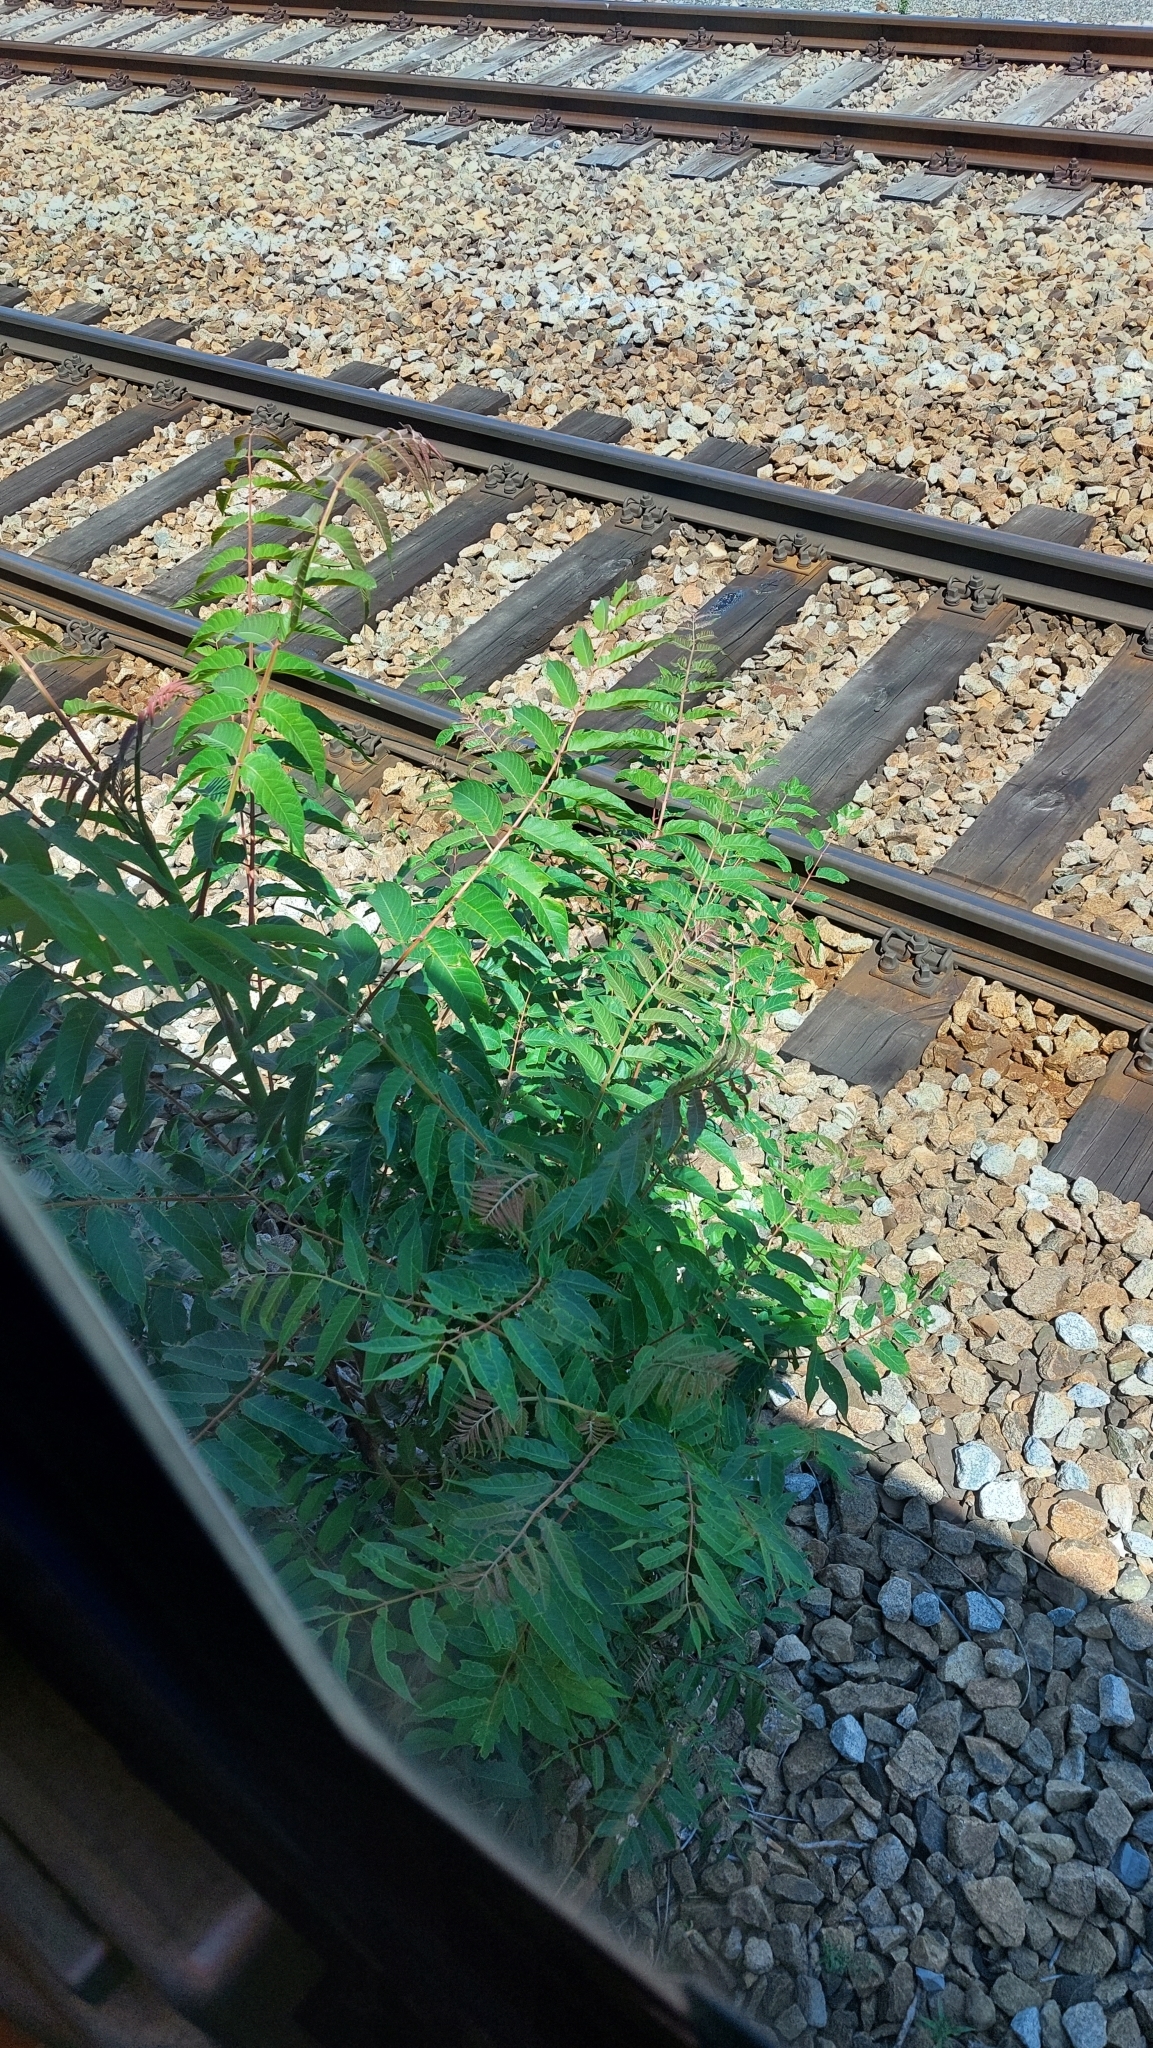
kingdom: Plantae
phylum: Tracheophyta
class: Magnoliopsida
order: Sapindales
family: Simaroubaceae
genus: Ailanthus
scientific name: Ailanthus altissima
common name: Tree-of-heaven
